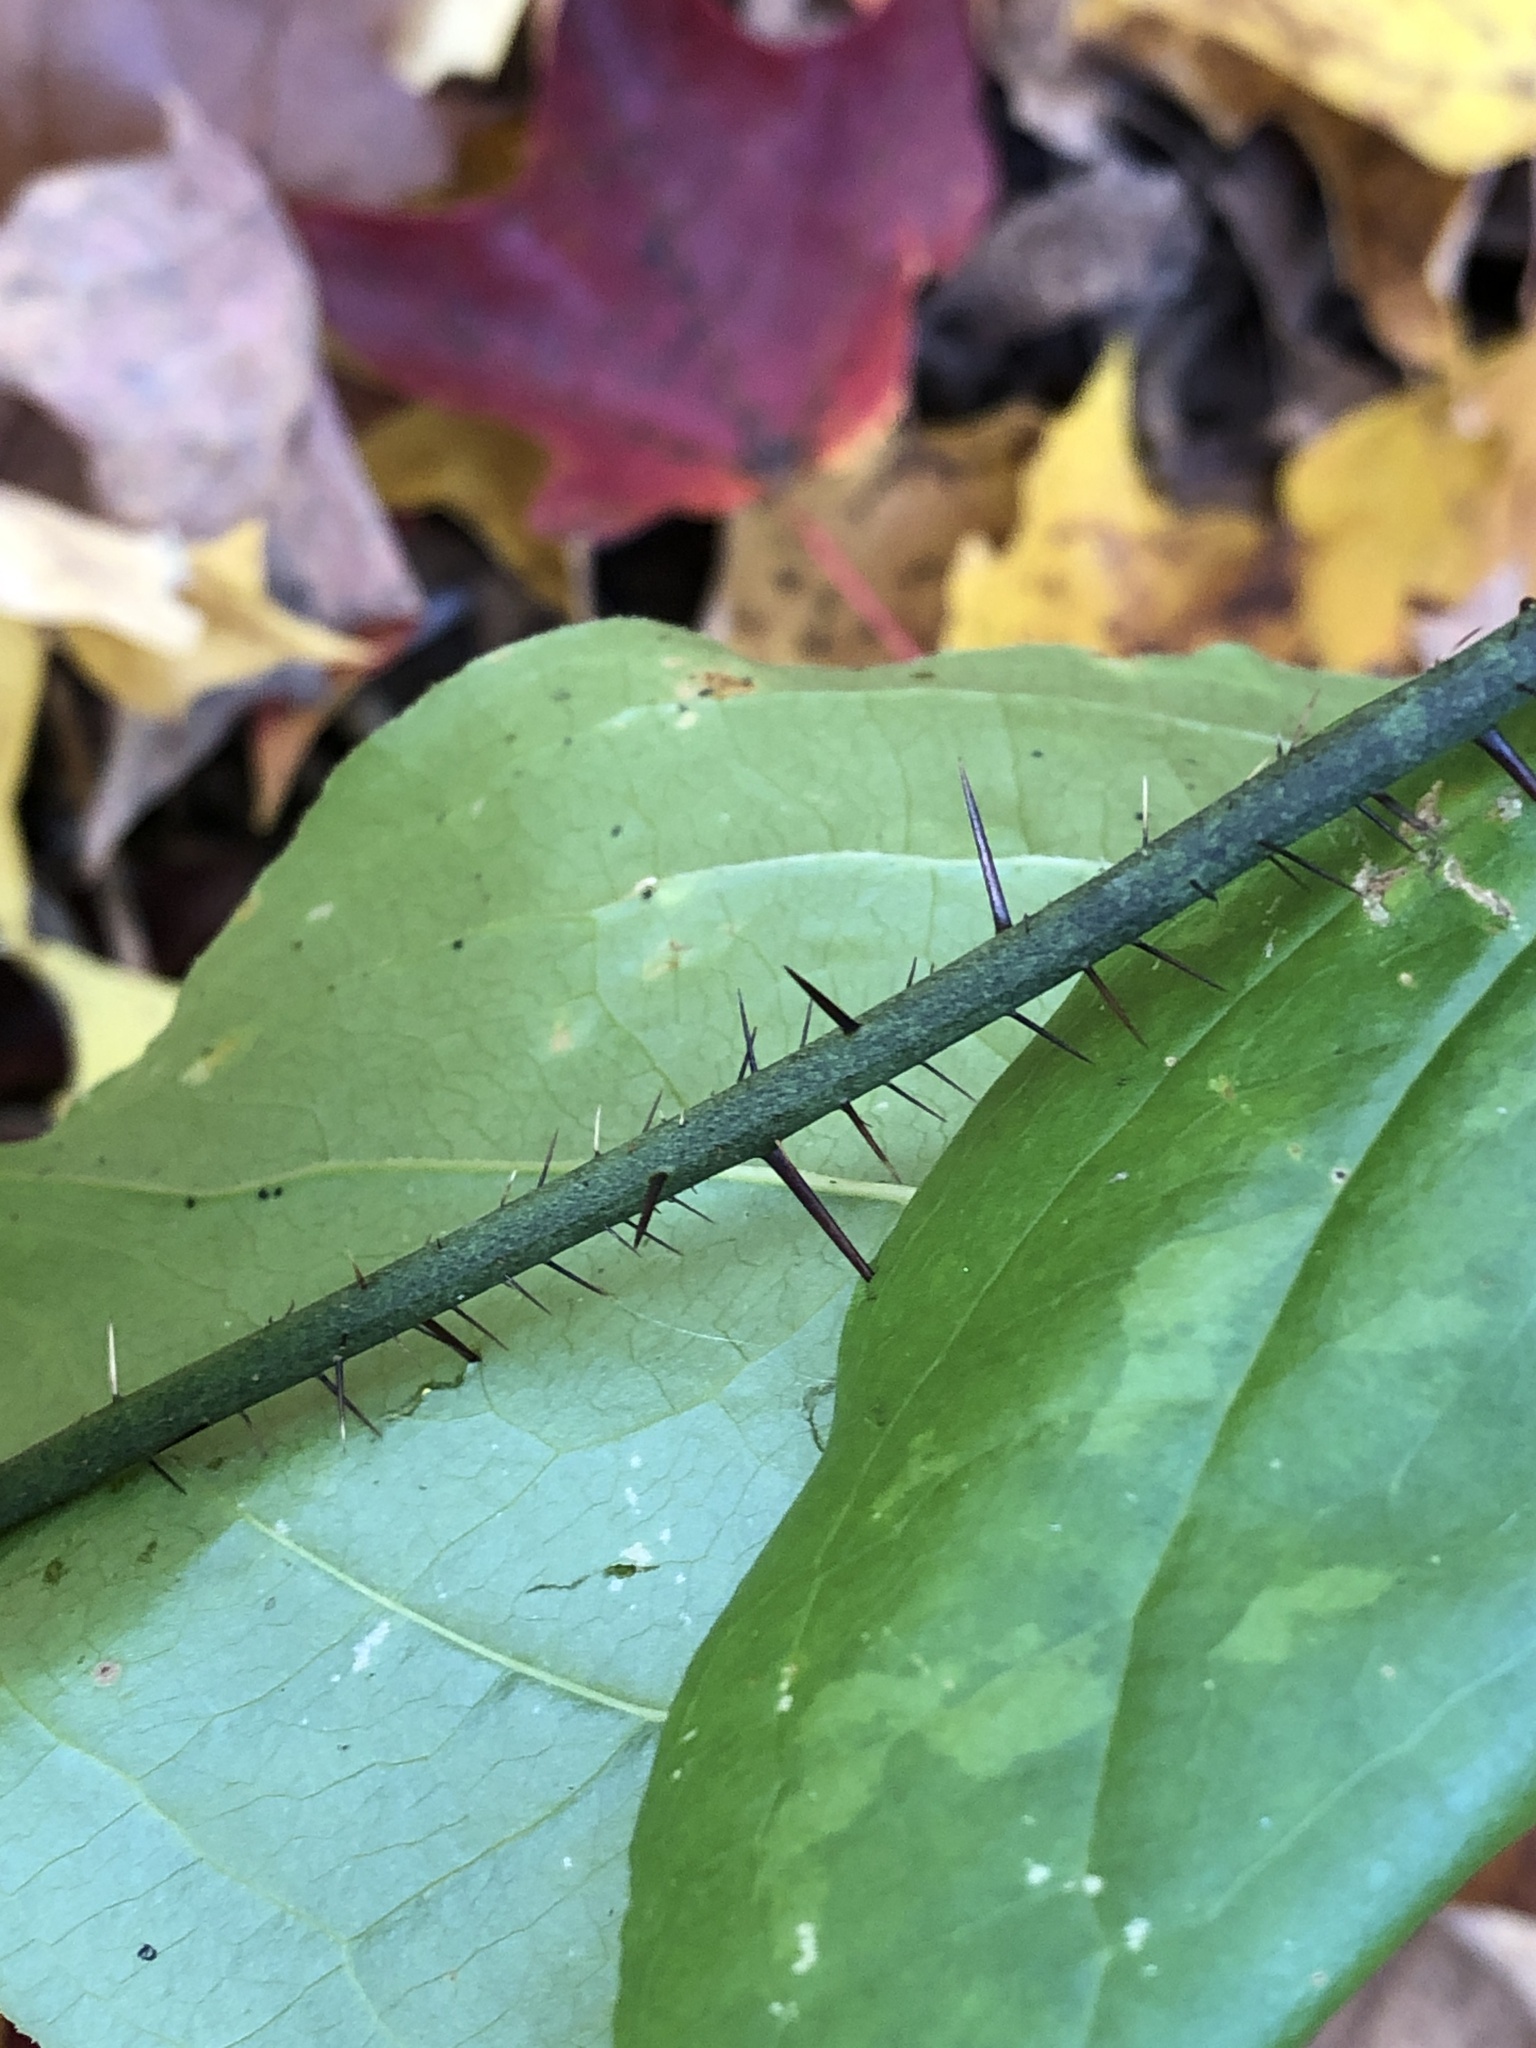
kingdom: Plantae
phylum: Tracheophyta
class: Liliopsida
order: Liliales
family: Smilacaceae
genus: Smilax
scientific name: Smilax tamnoides
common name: Hellfetter
